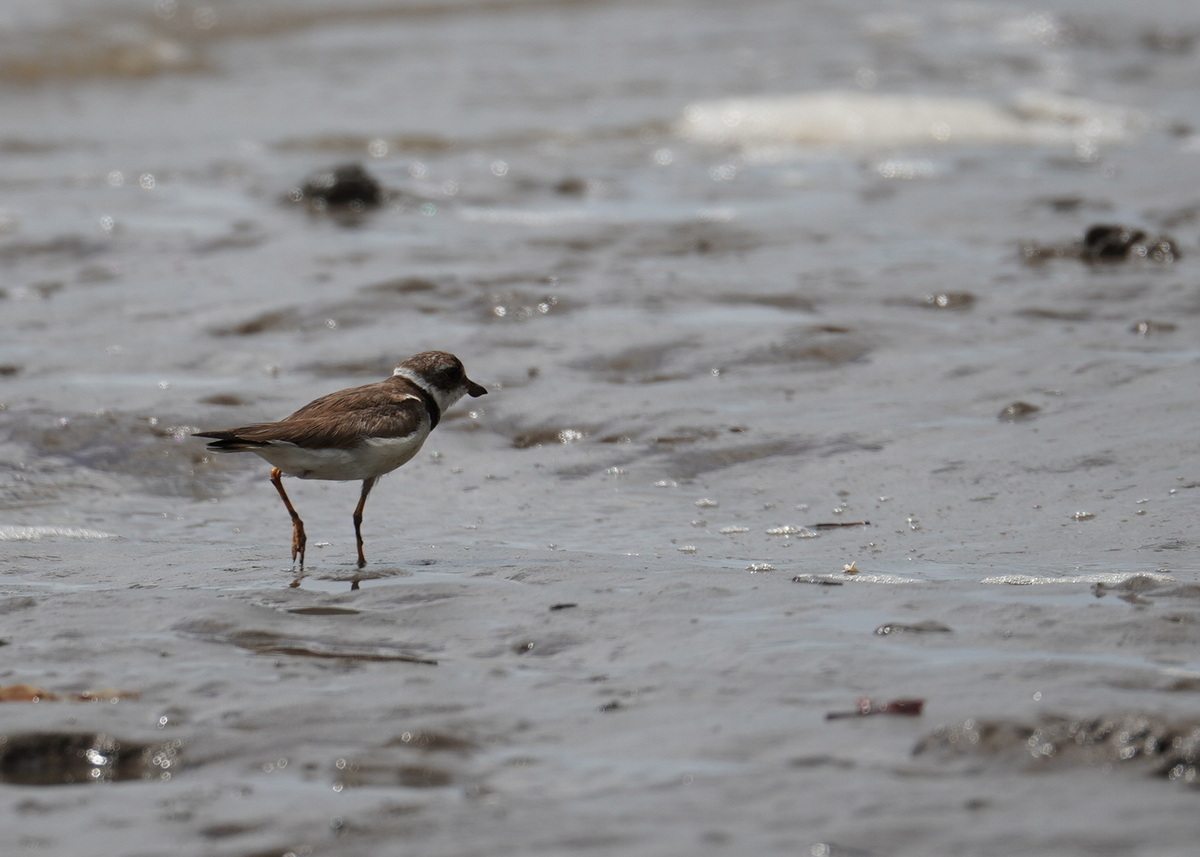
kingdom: Animalia
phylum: Chordata
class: Aves
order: Charadriiformes
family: Charadriidae
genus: Charadrius
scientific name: Charadrius semipalmatus
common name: Semipalmated plover
